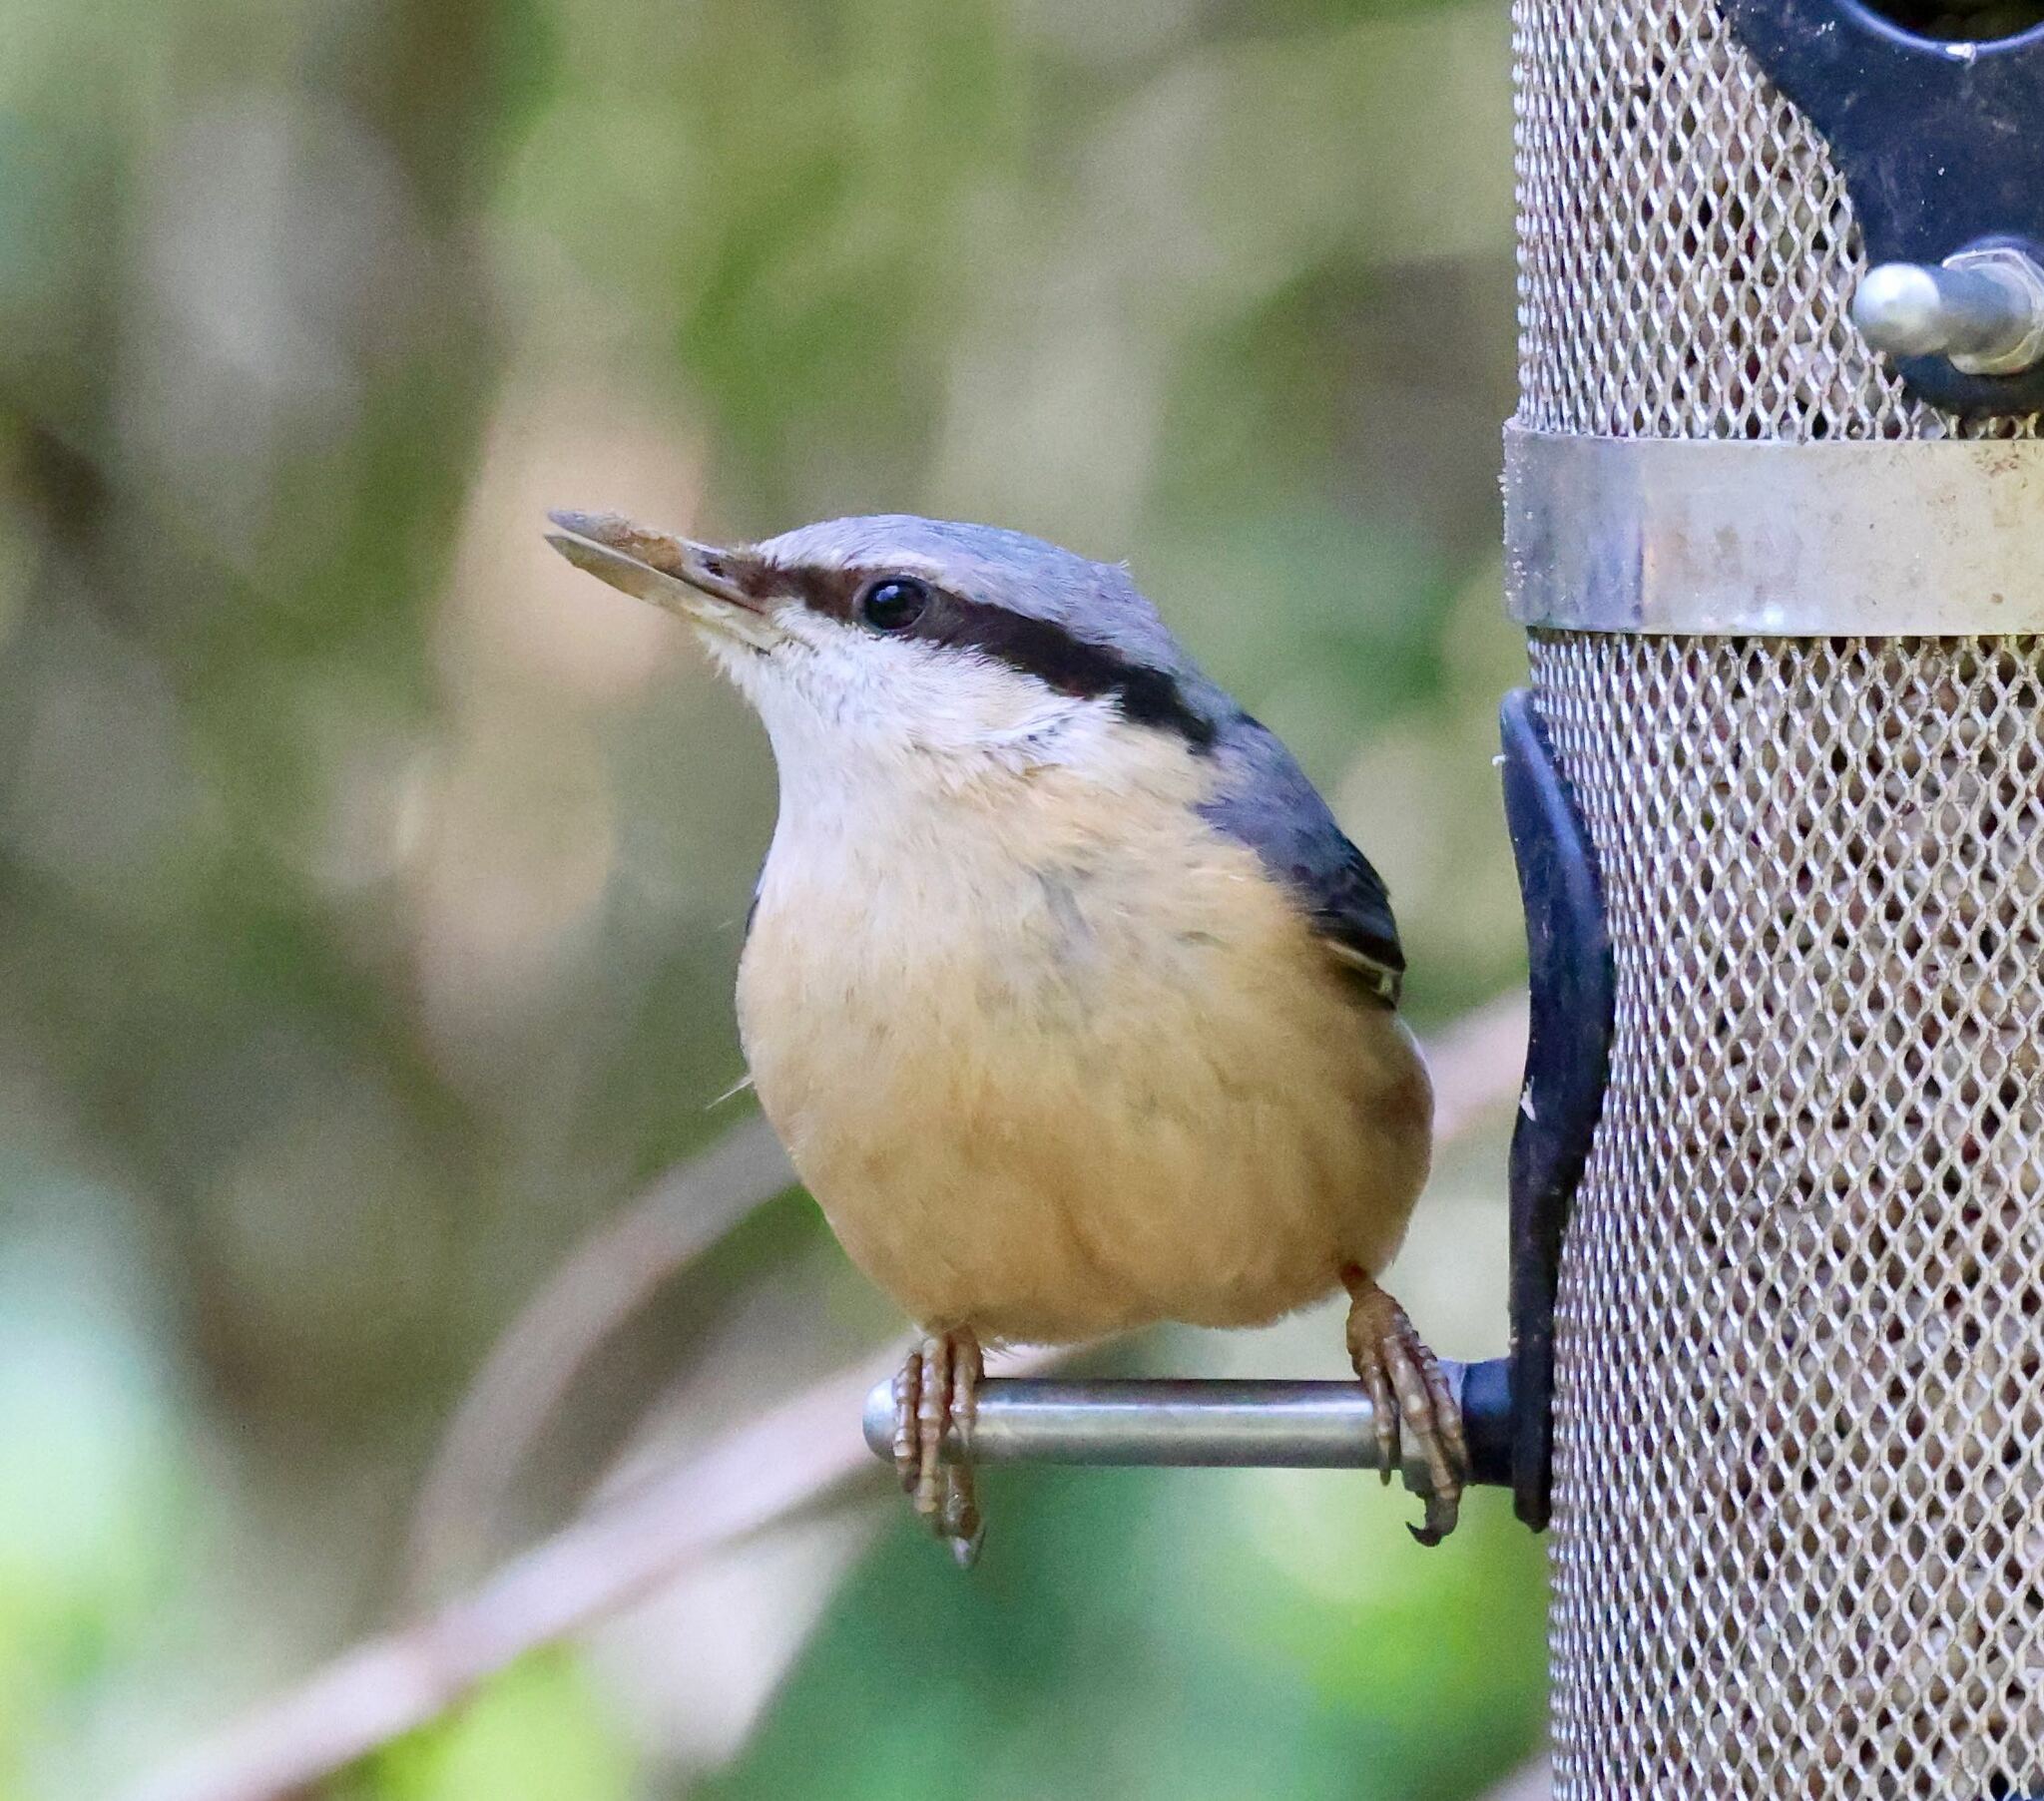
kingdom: Animalia
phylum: Chordata
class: Aves
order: Passeriformes
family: Sittidae
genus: Sitta
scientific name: Sitta europaea
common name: Eurasian nuthatch
